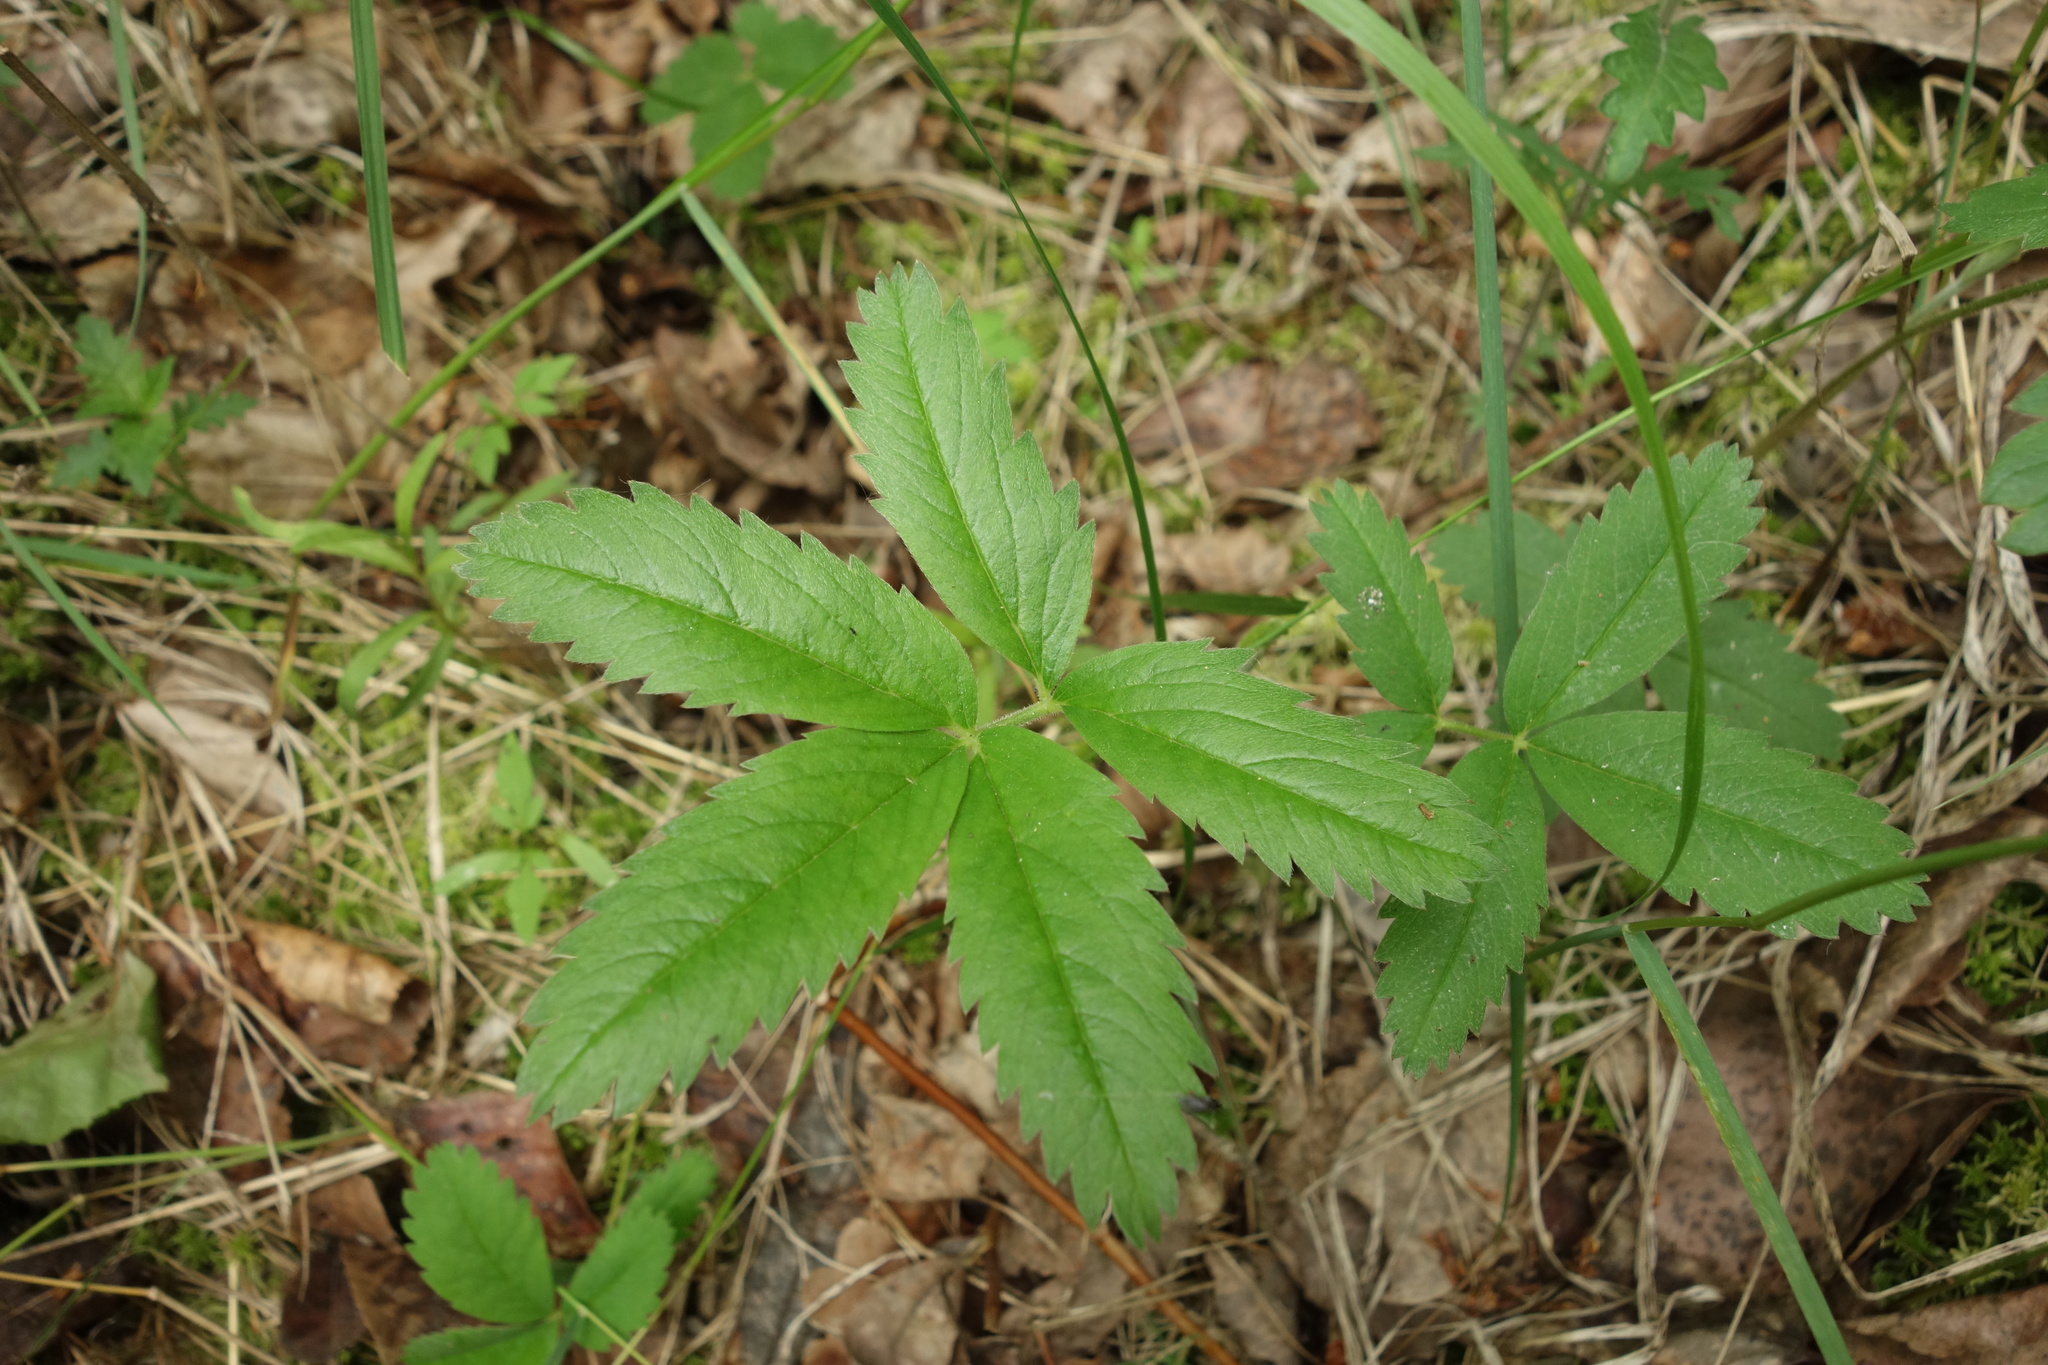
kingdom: Plantae
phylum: Tracheophyta
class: Magnoliopsida
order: Rosales
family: Rosaceae
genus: Comarum
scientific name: Comarum palustre
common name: Marsh cinquefoil
